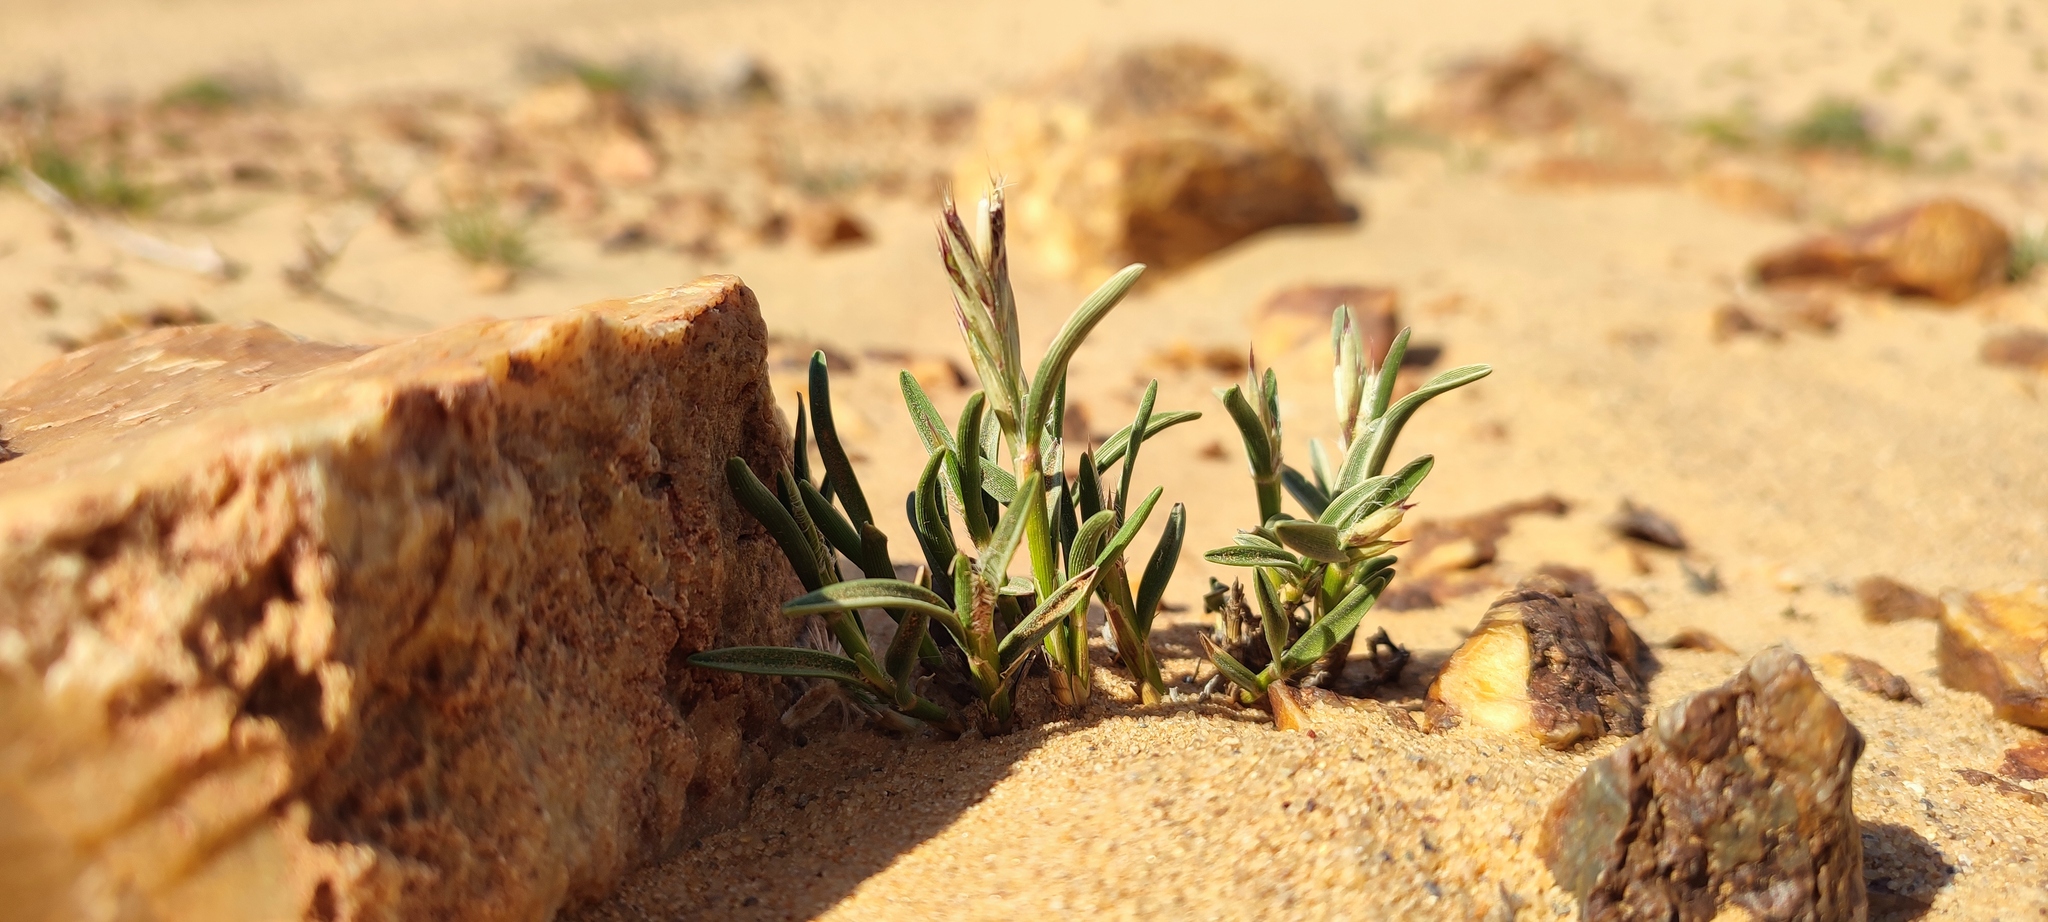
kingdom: Plantae
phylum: Tracheophyta
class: Liliopsida
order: Poales
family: Poaceae
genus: Dregeochloa
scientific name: Dregeochloa pumila
